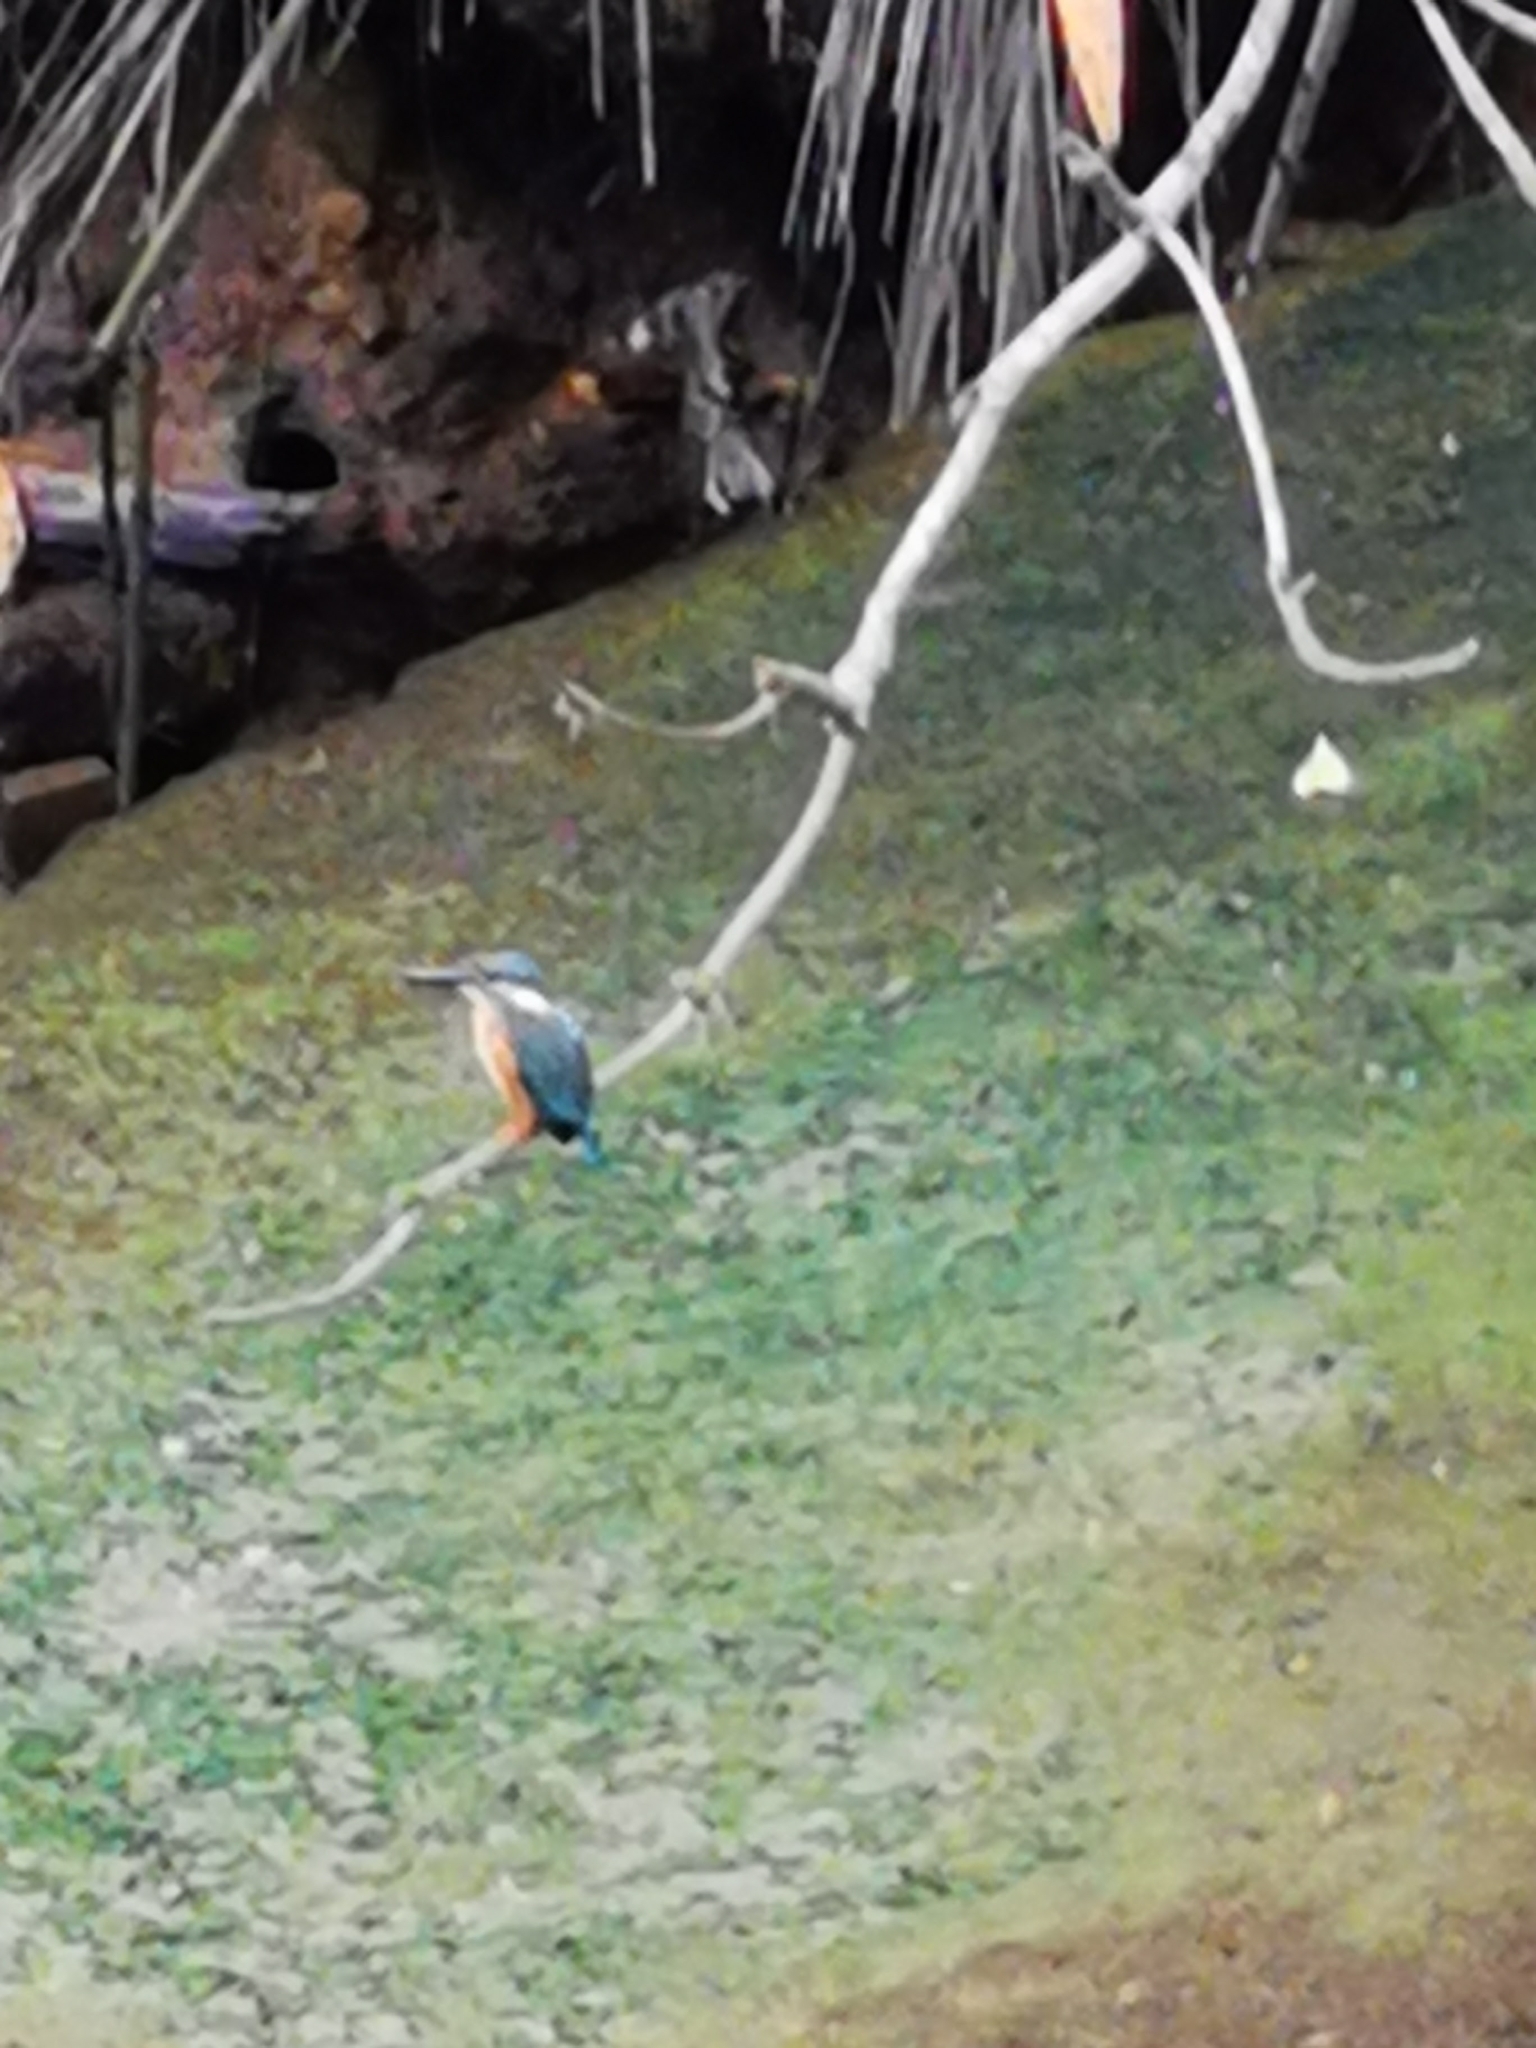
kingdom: Animalia
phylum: Chordata
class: Aves
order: Coraciiformes
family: Alcedinidae
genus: Alcedo
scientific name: Alcedo atthis
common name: Common kingfisher
